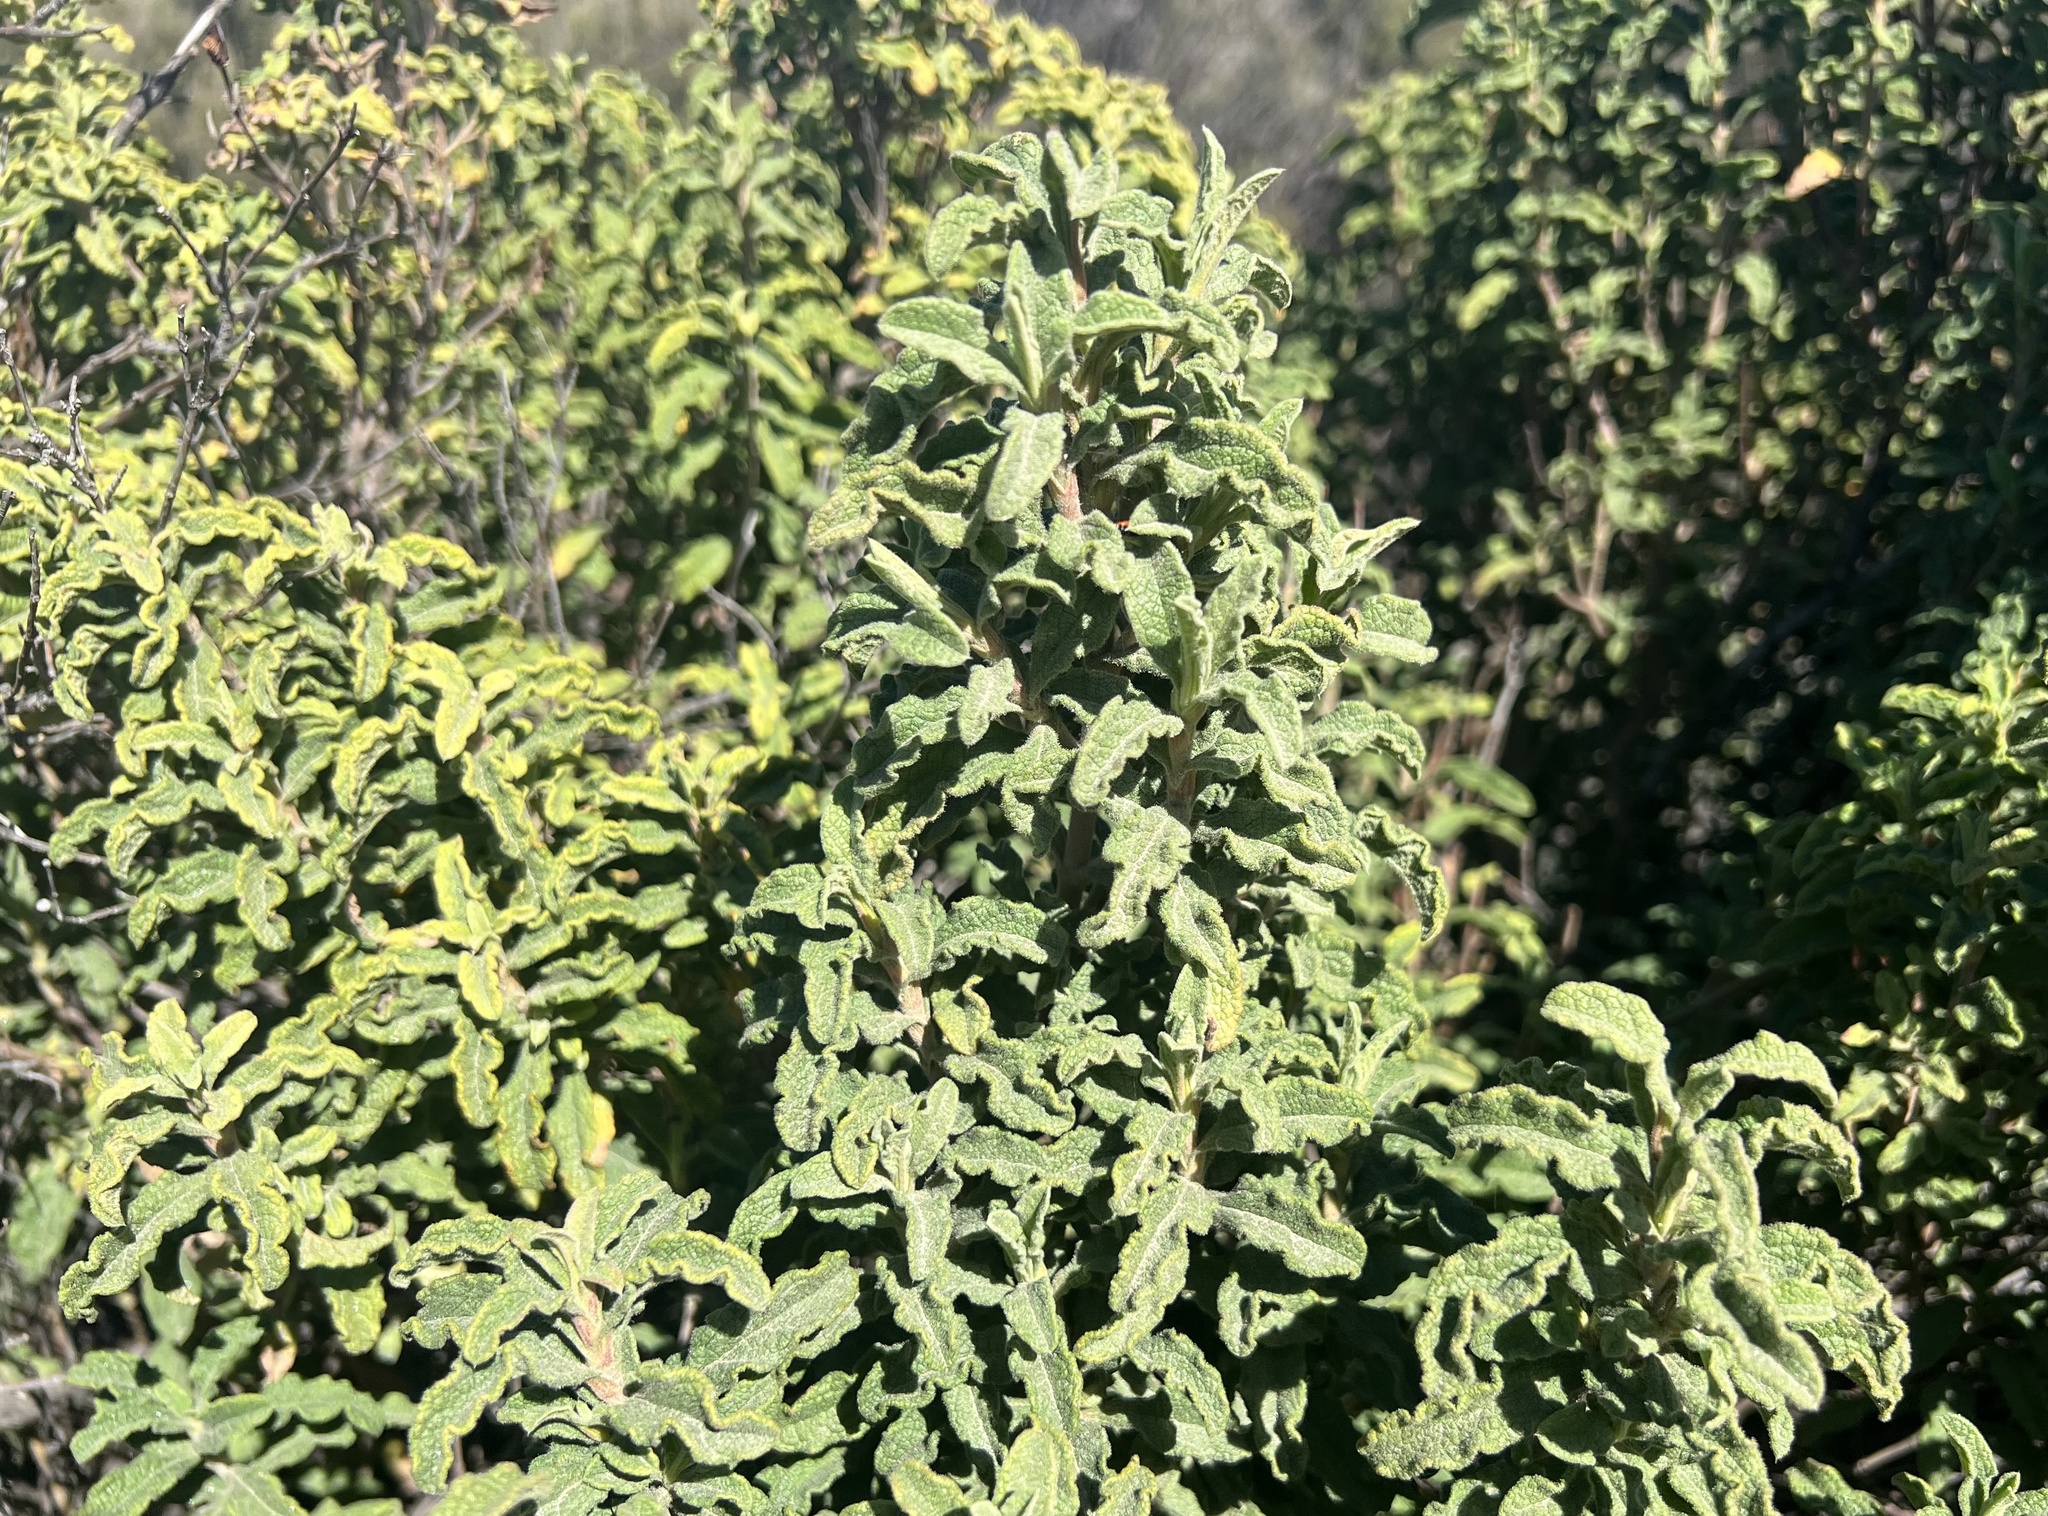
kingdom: Plantae
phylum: Tracheophyta
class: Magnoliopsida
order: Malvales
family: Cistaceae
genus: Cistus
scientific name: Cistus creticus
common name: Cretan rockrose
